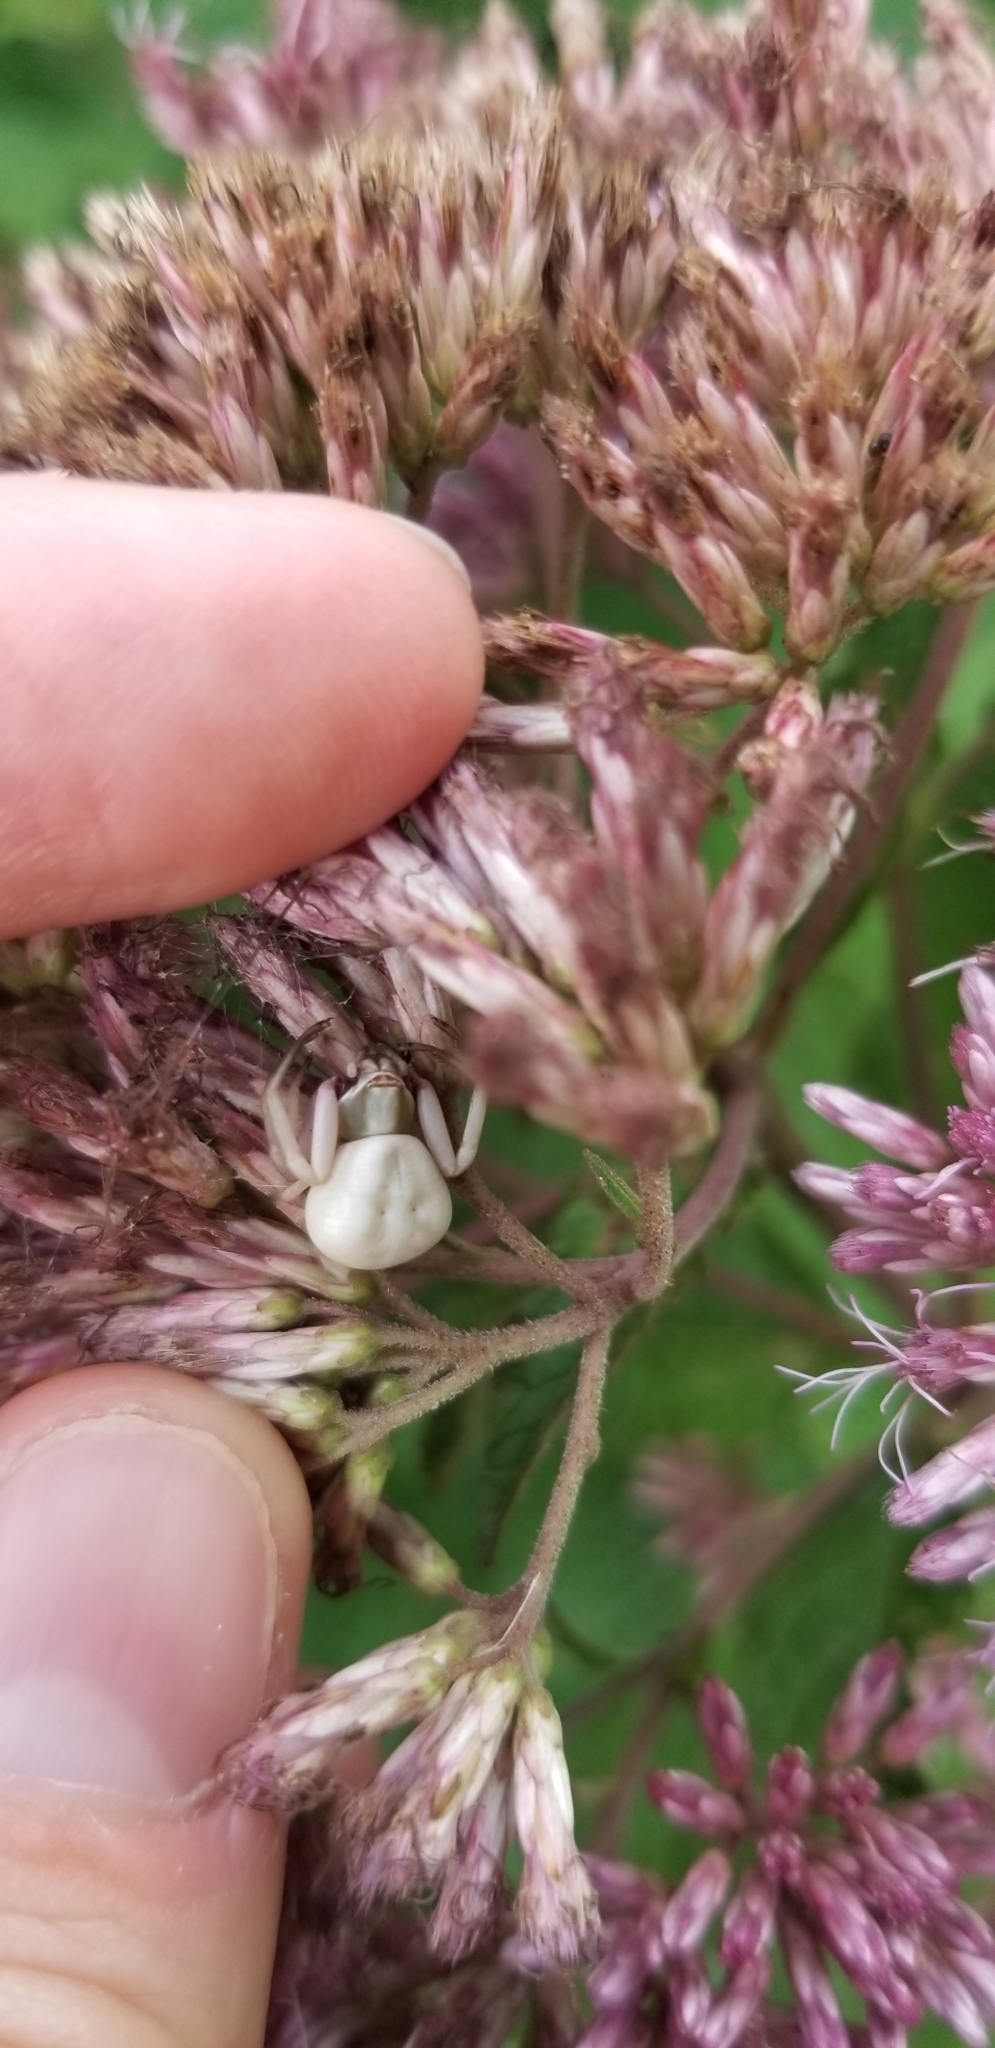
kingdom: Animalia
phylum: Arthropoda
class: Arachnida
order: Araneae
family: Thomisidae
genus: Misumenoides
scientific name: Misumenoides formosipes
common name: White-banded crab spider
